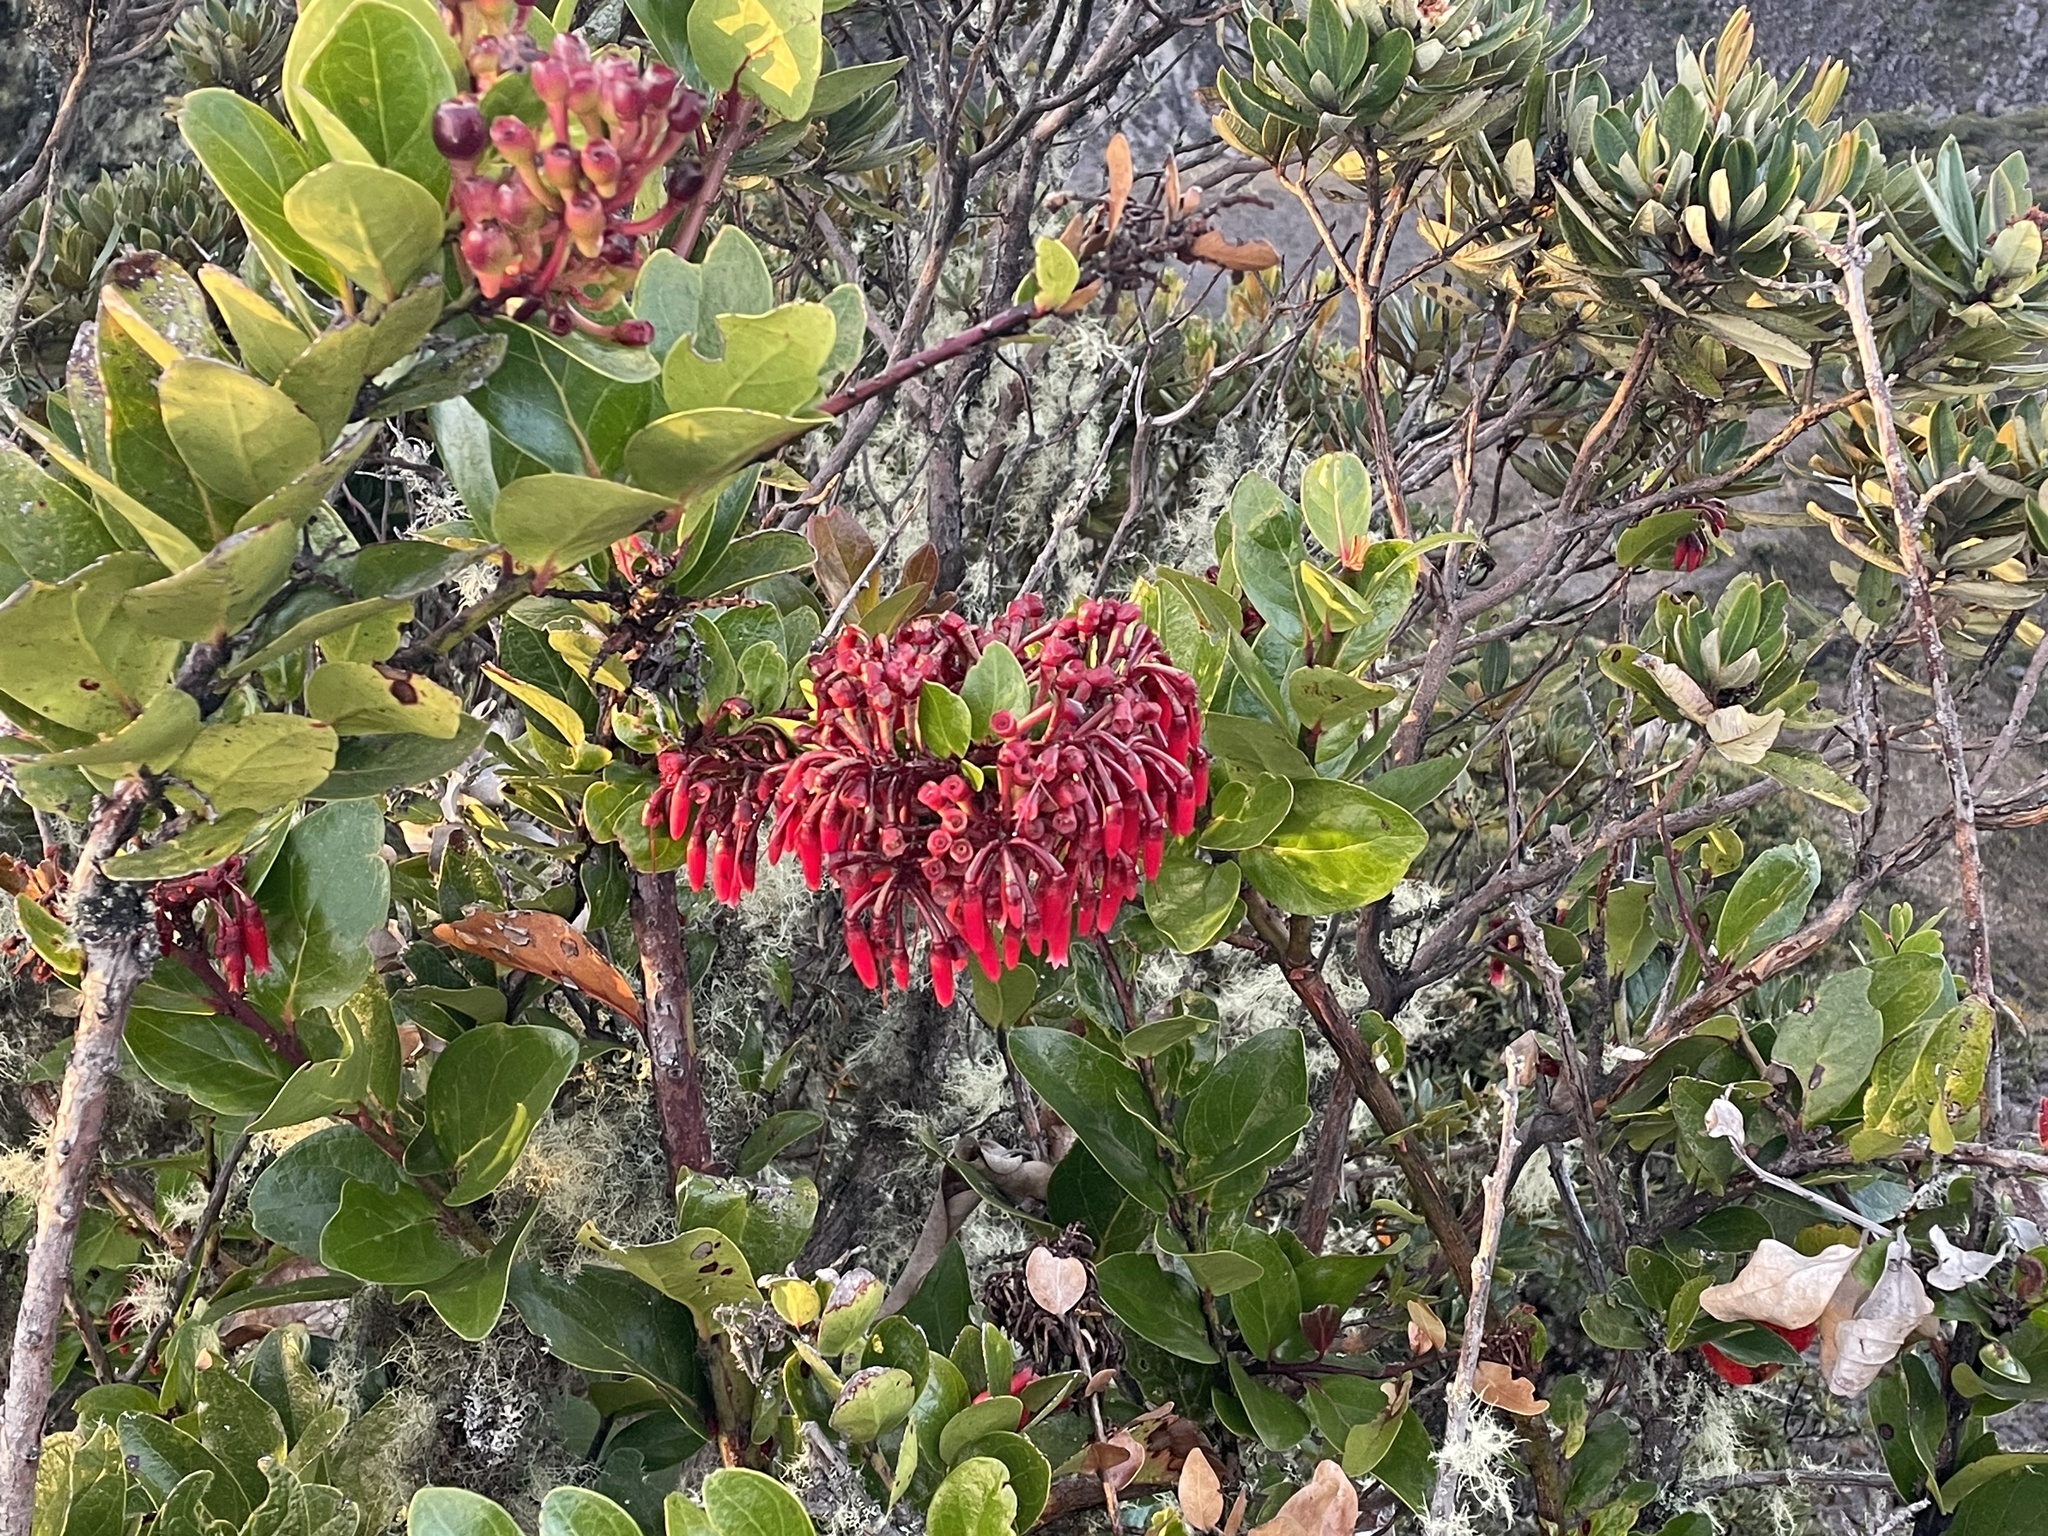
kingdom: Plantae
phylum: Tracheophyta
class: Magnoliopsida
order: Ericales
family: Ericaceae
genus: Macleania
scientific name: Macleania rupestris
